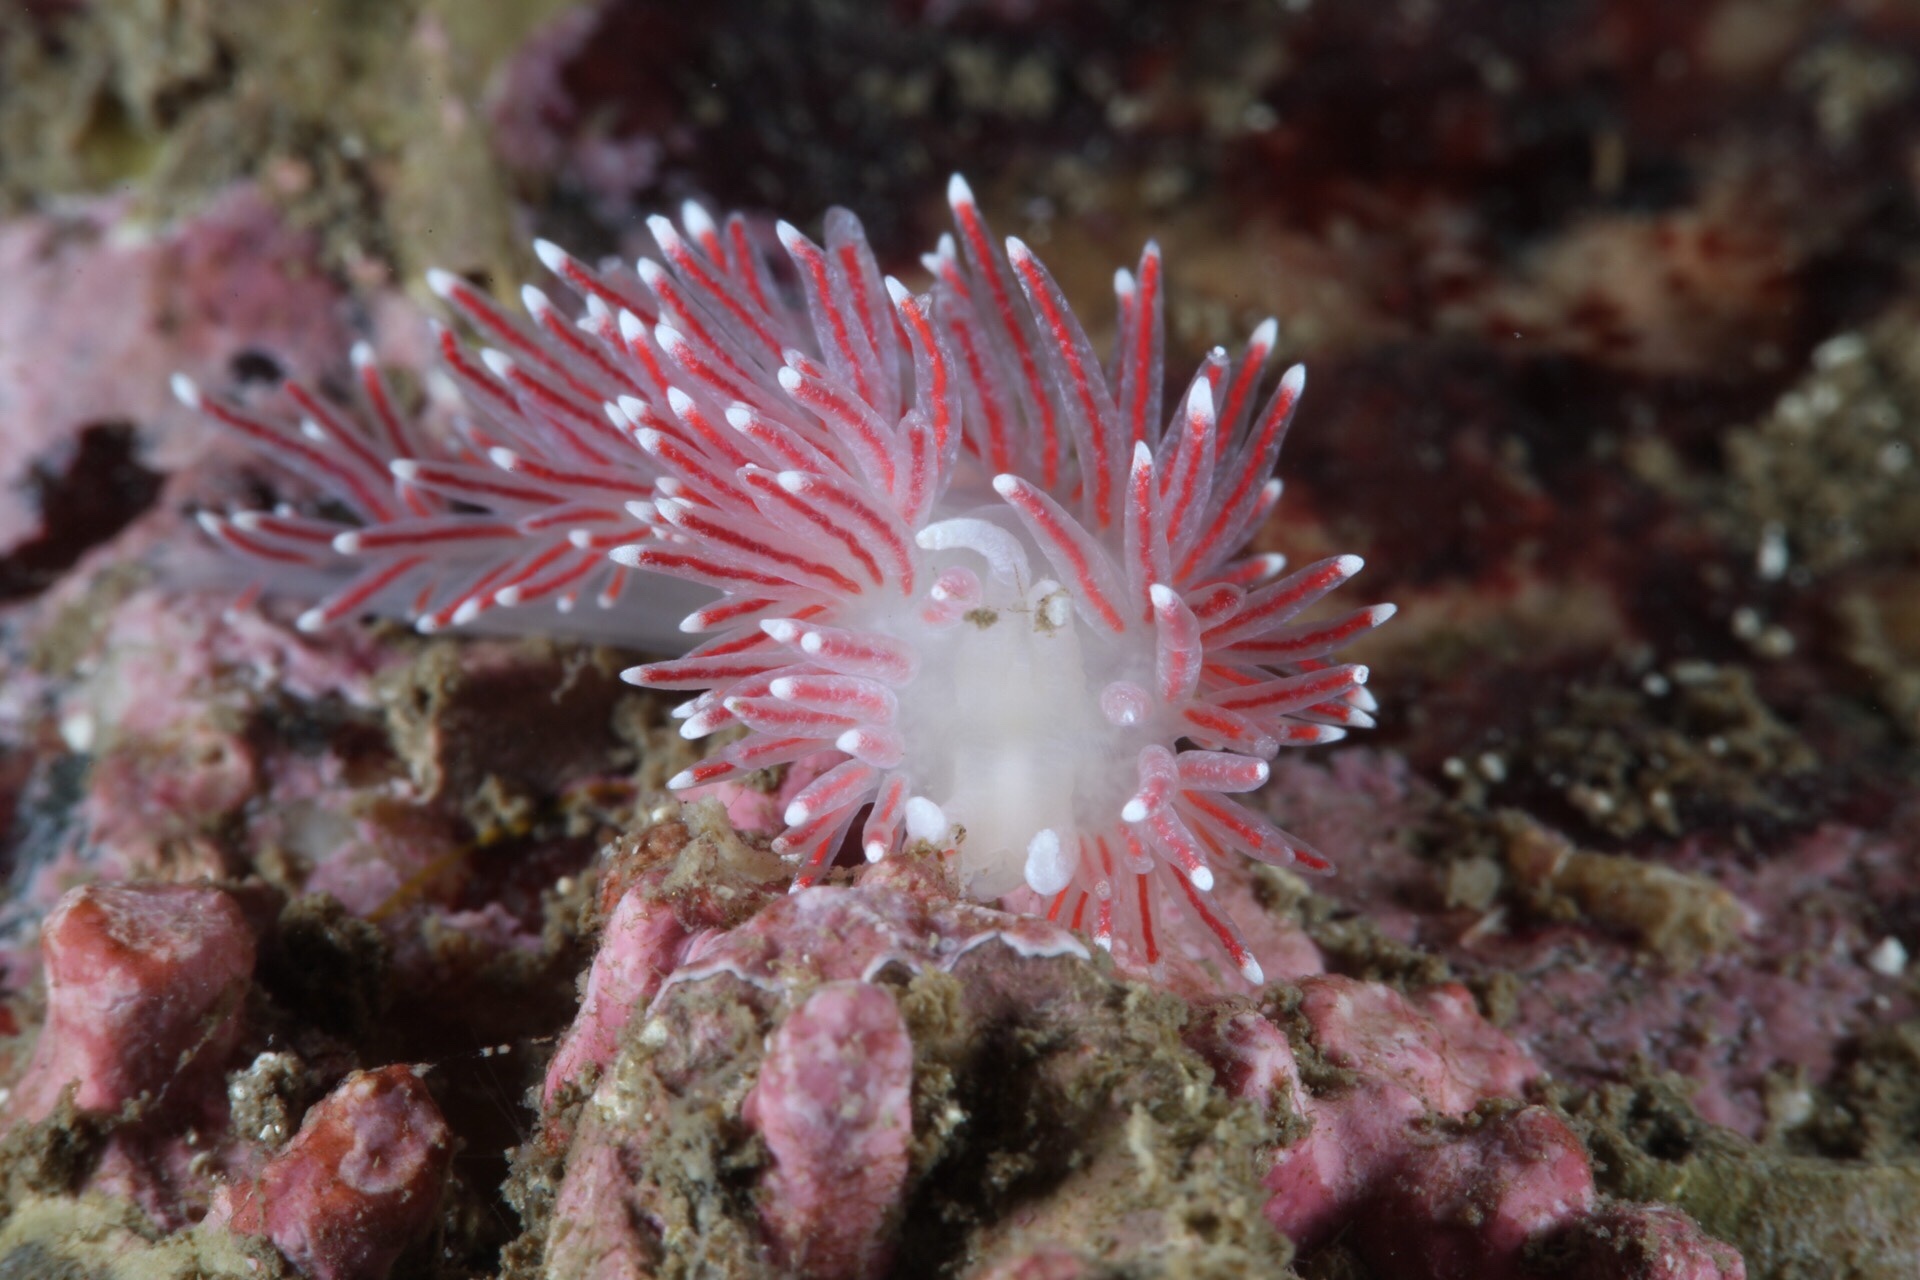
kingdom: Animalia
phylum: Mollusca
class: Gastropoda
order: Nudibranchia
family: Flabellinidae
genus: Carronella
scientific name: Carronella pellucida
